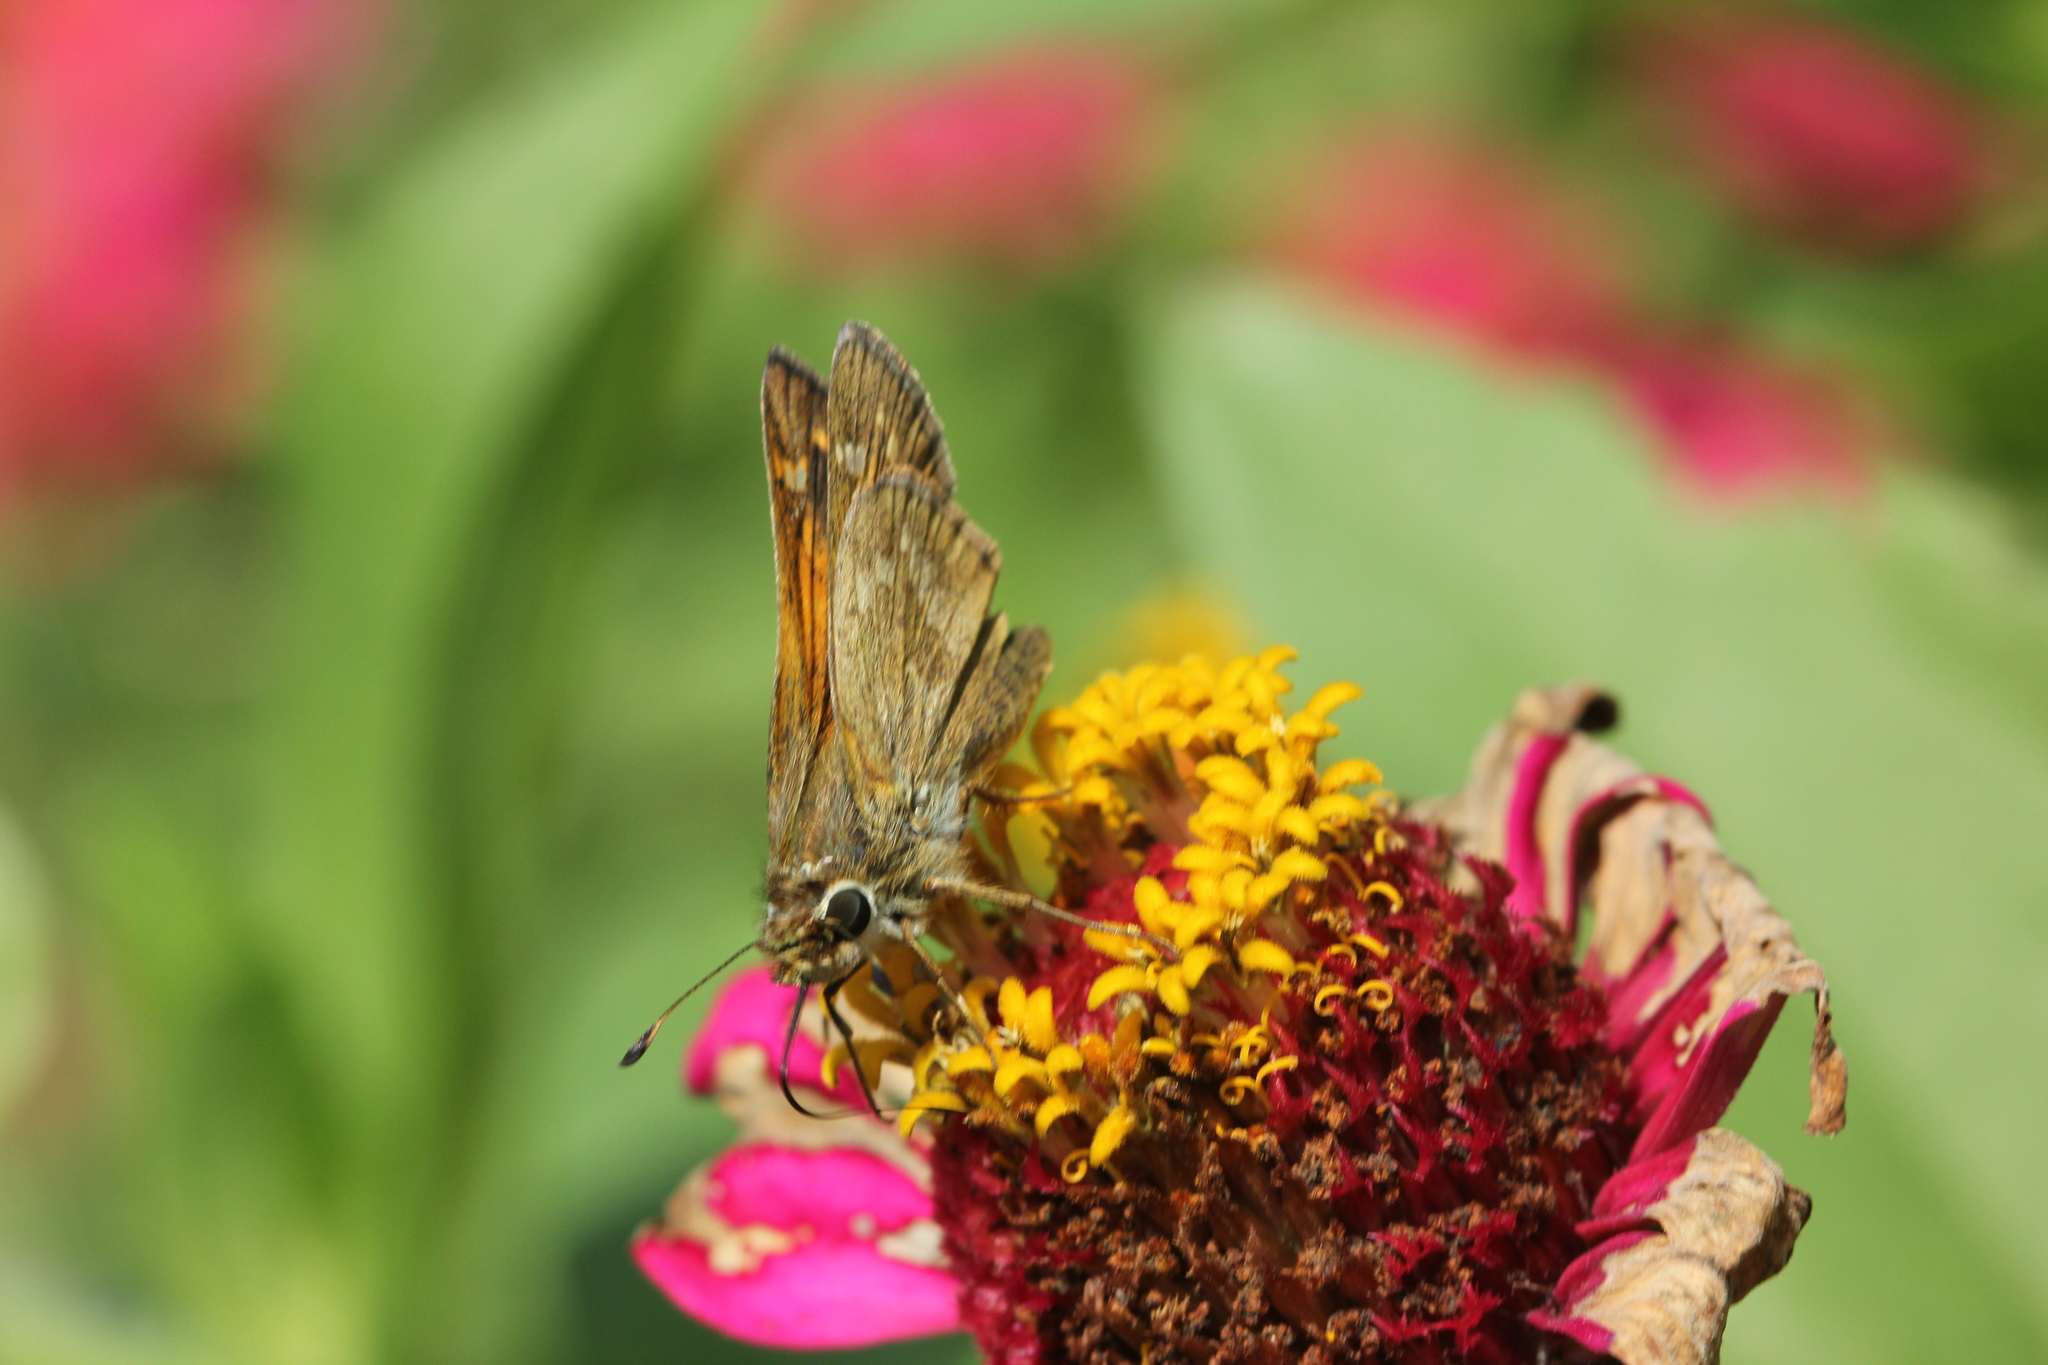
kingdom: Animalia
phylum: Arthropoda
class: Insecta
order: Lepidoptera
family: Hesperiidae
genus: Atalopedes
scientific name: Atalopedes
